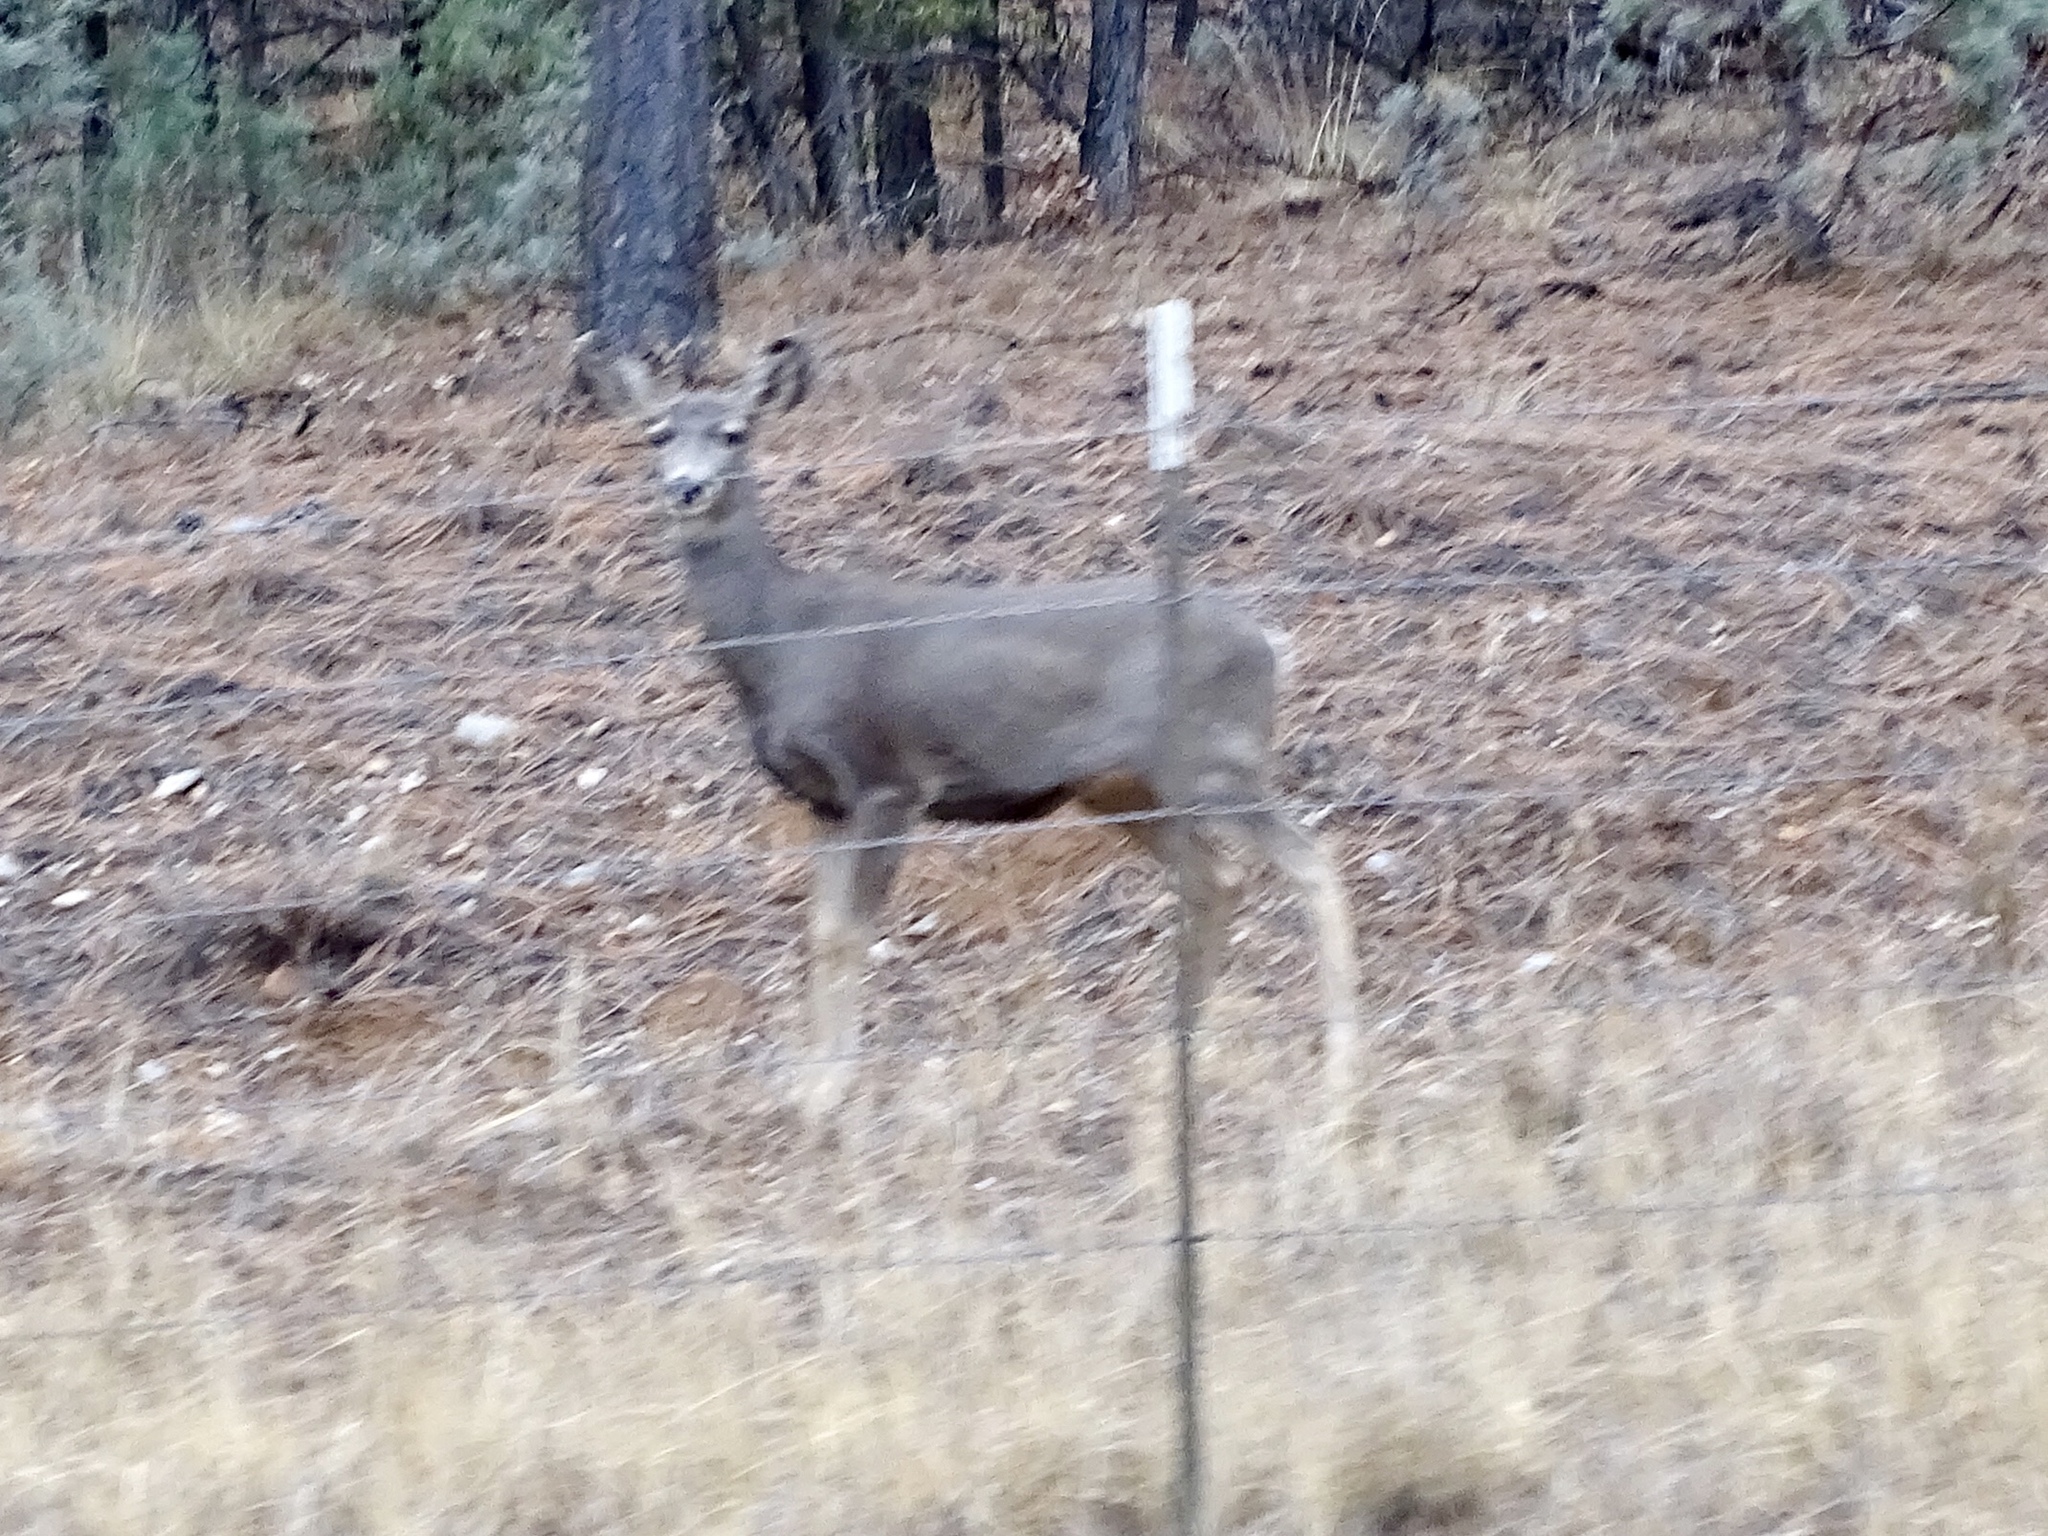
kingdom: Animalia
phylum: Chordata
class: Mammalia
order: Artiodactyla
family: Cervidae
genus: Odocoileus
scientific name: Odocoileus hemionus
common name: Mule deer
